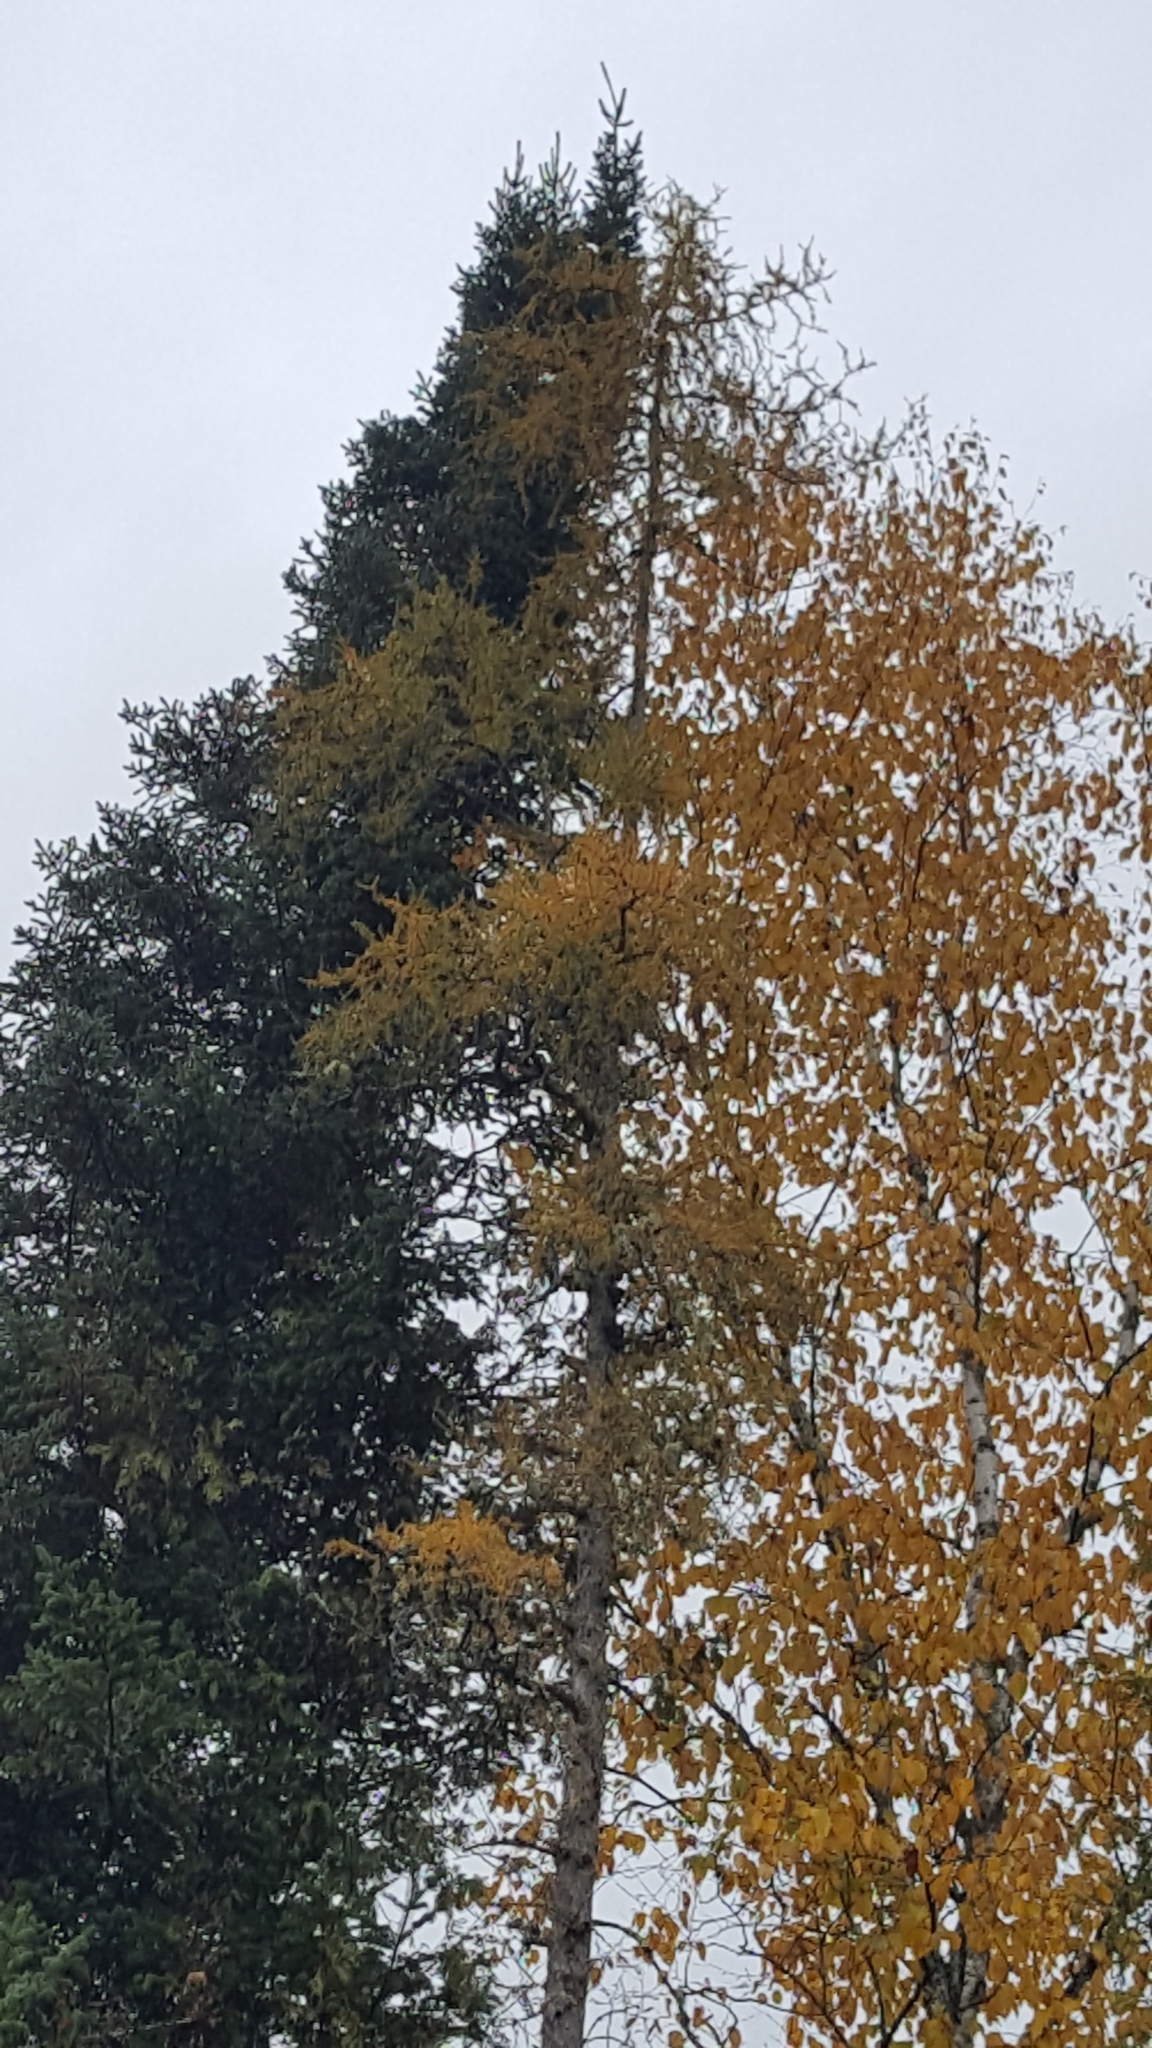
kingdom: Plantae
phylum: Tracheophyta
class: Pinopsida
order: Pinales
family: Pinaceae
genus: Larix
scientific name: Larix laricina
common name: American larch
